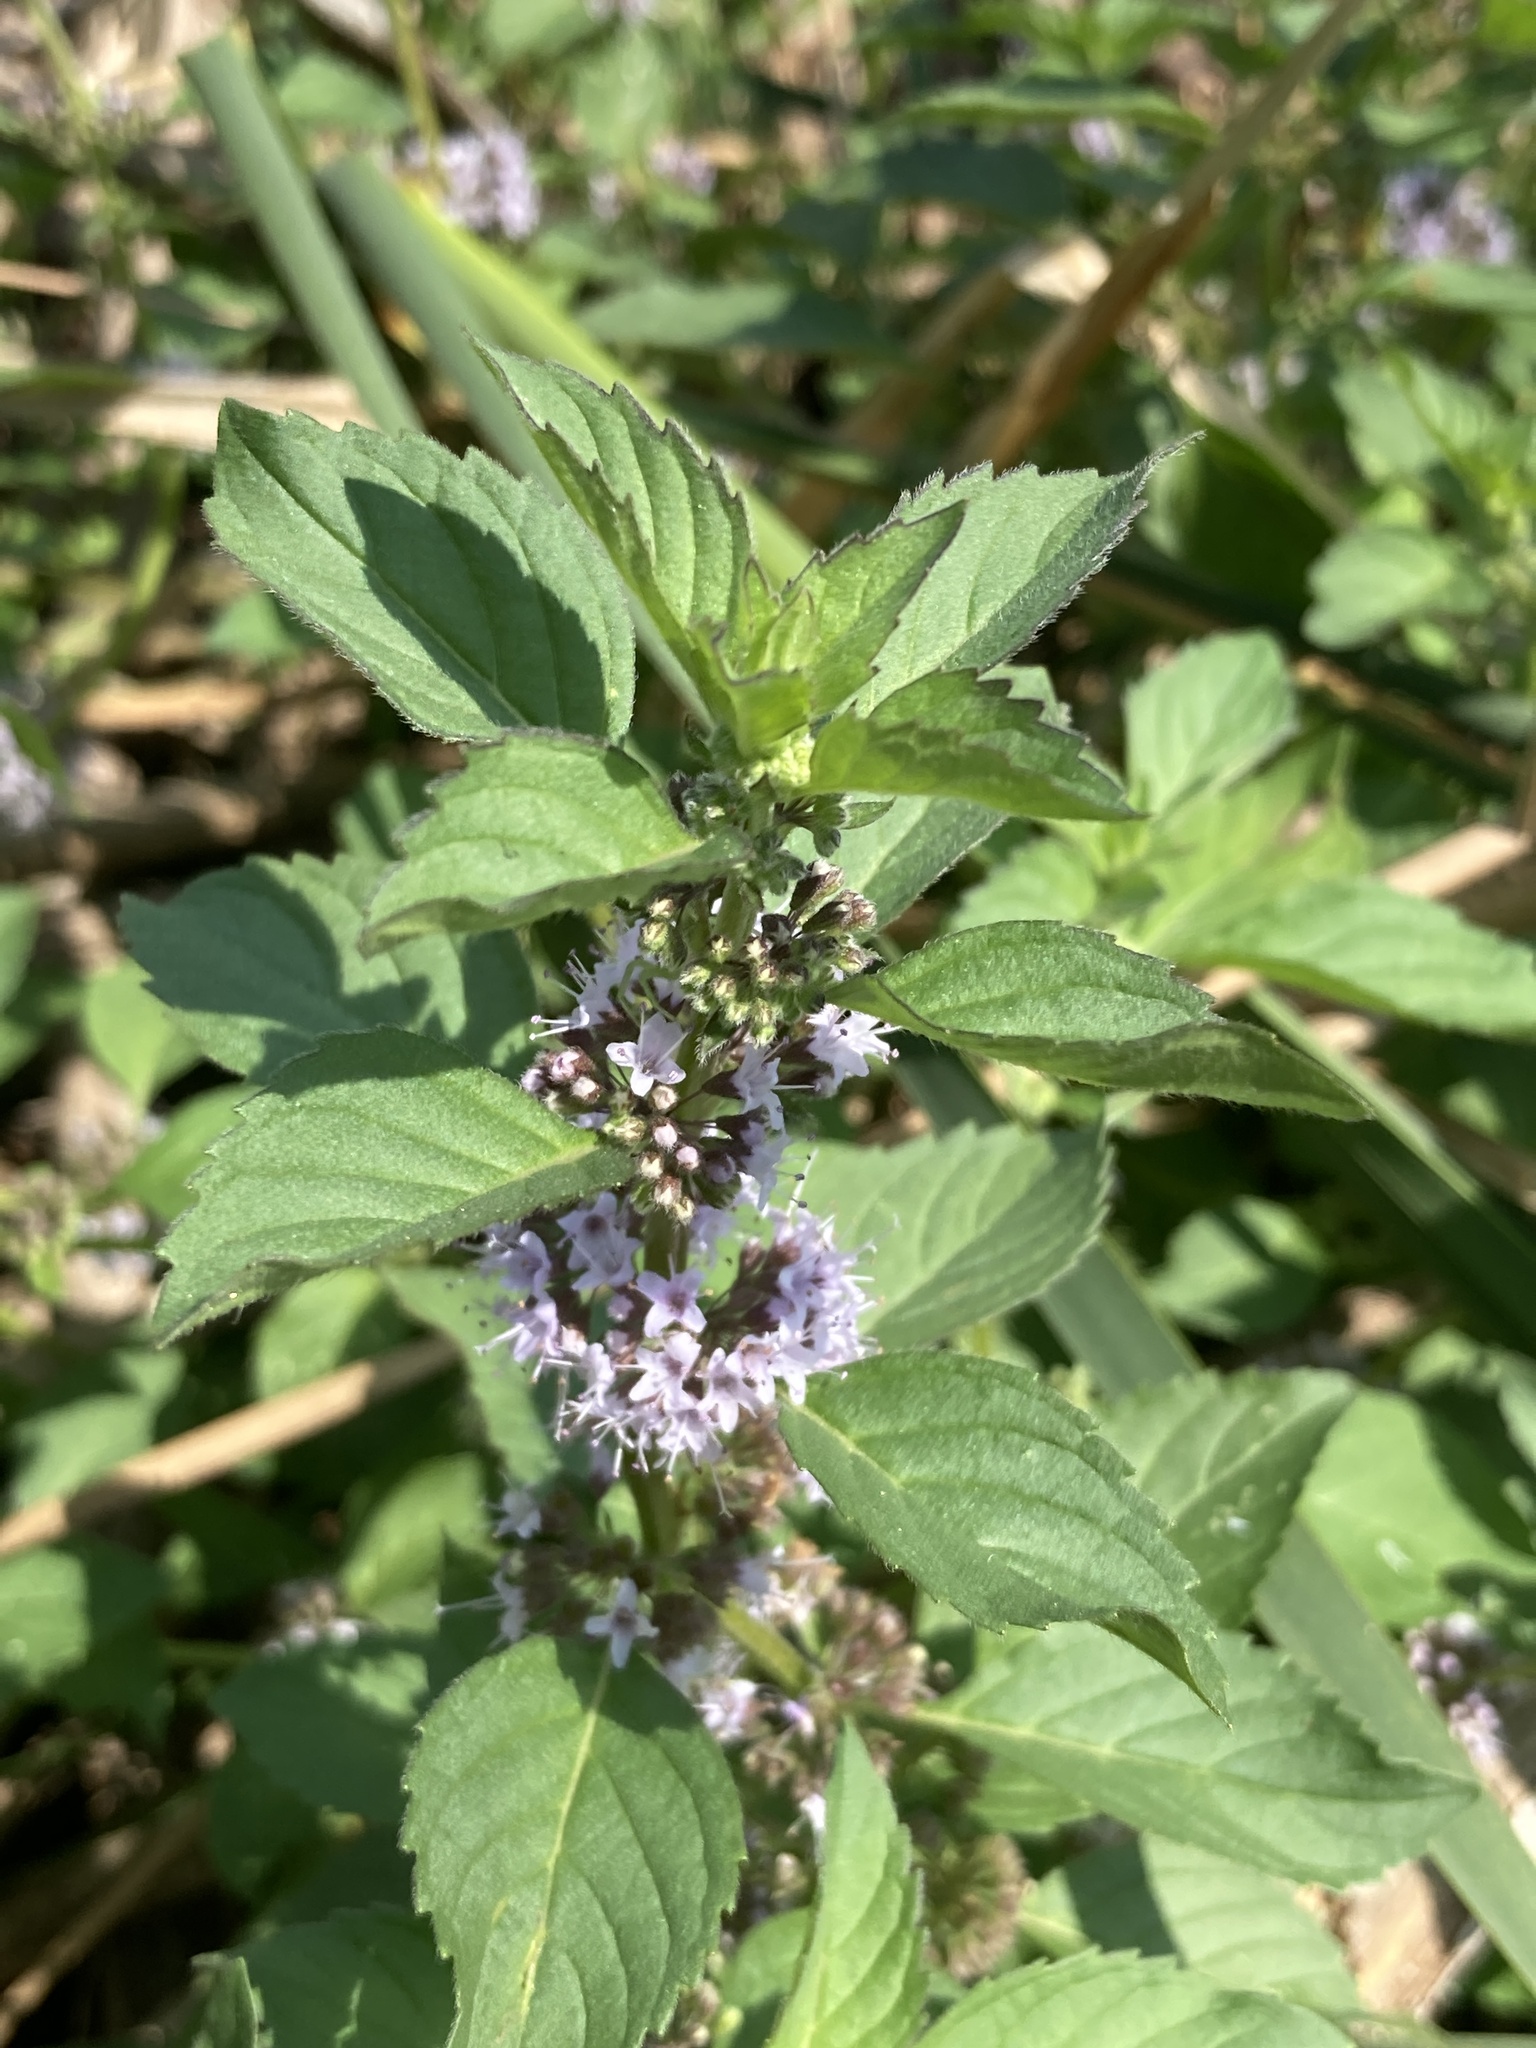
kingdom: Plantae
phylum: Tracheophyta
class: Magnoliopsida
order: Lamiales
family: Lamiaceae
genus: Mentha
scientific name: Mentha arvensis
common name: Corn mint
